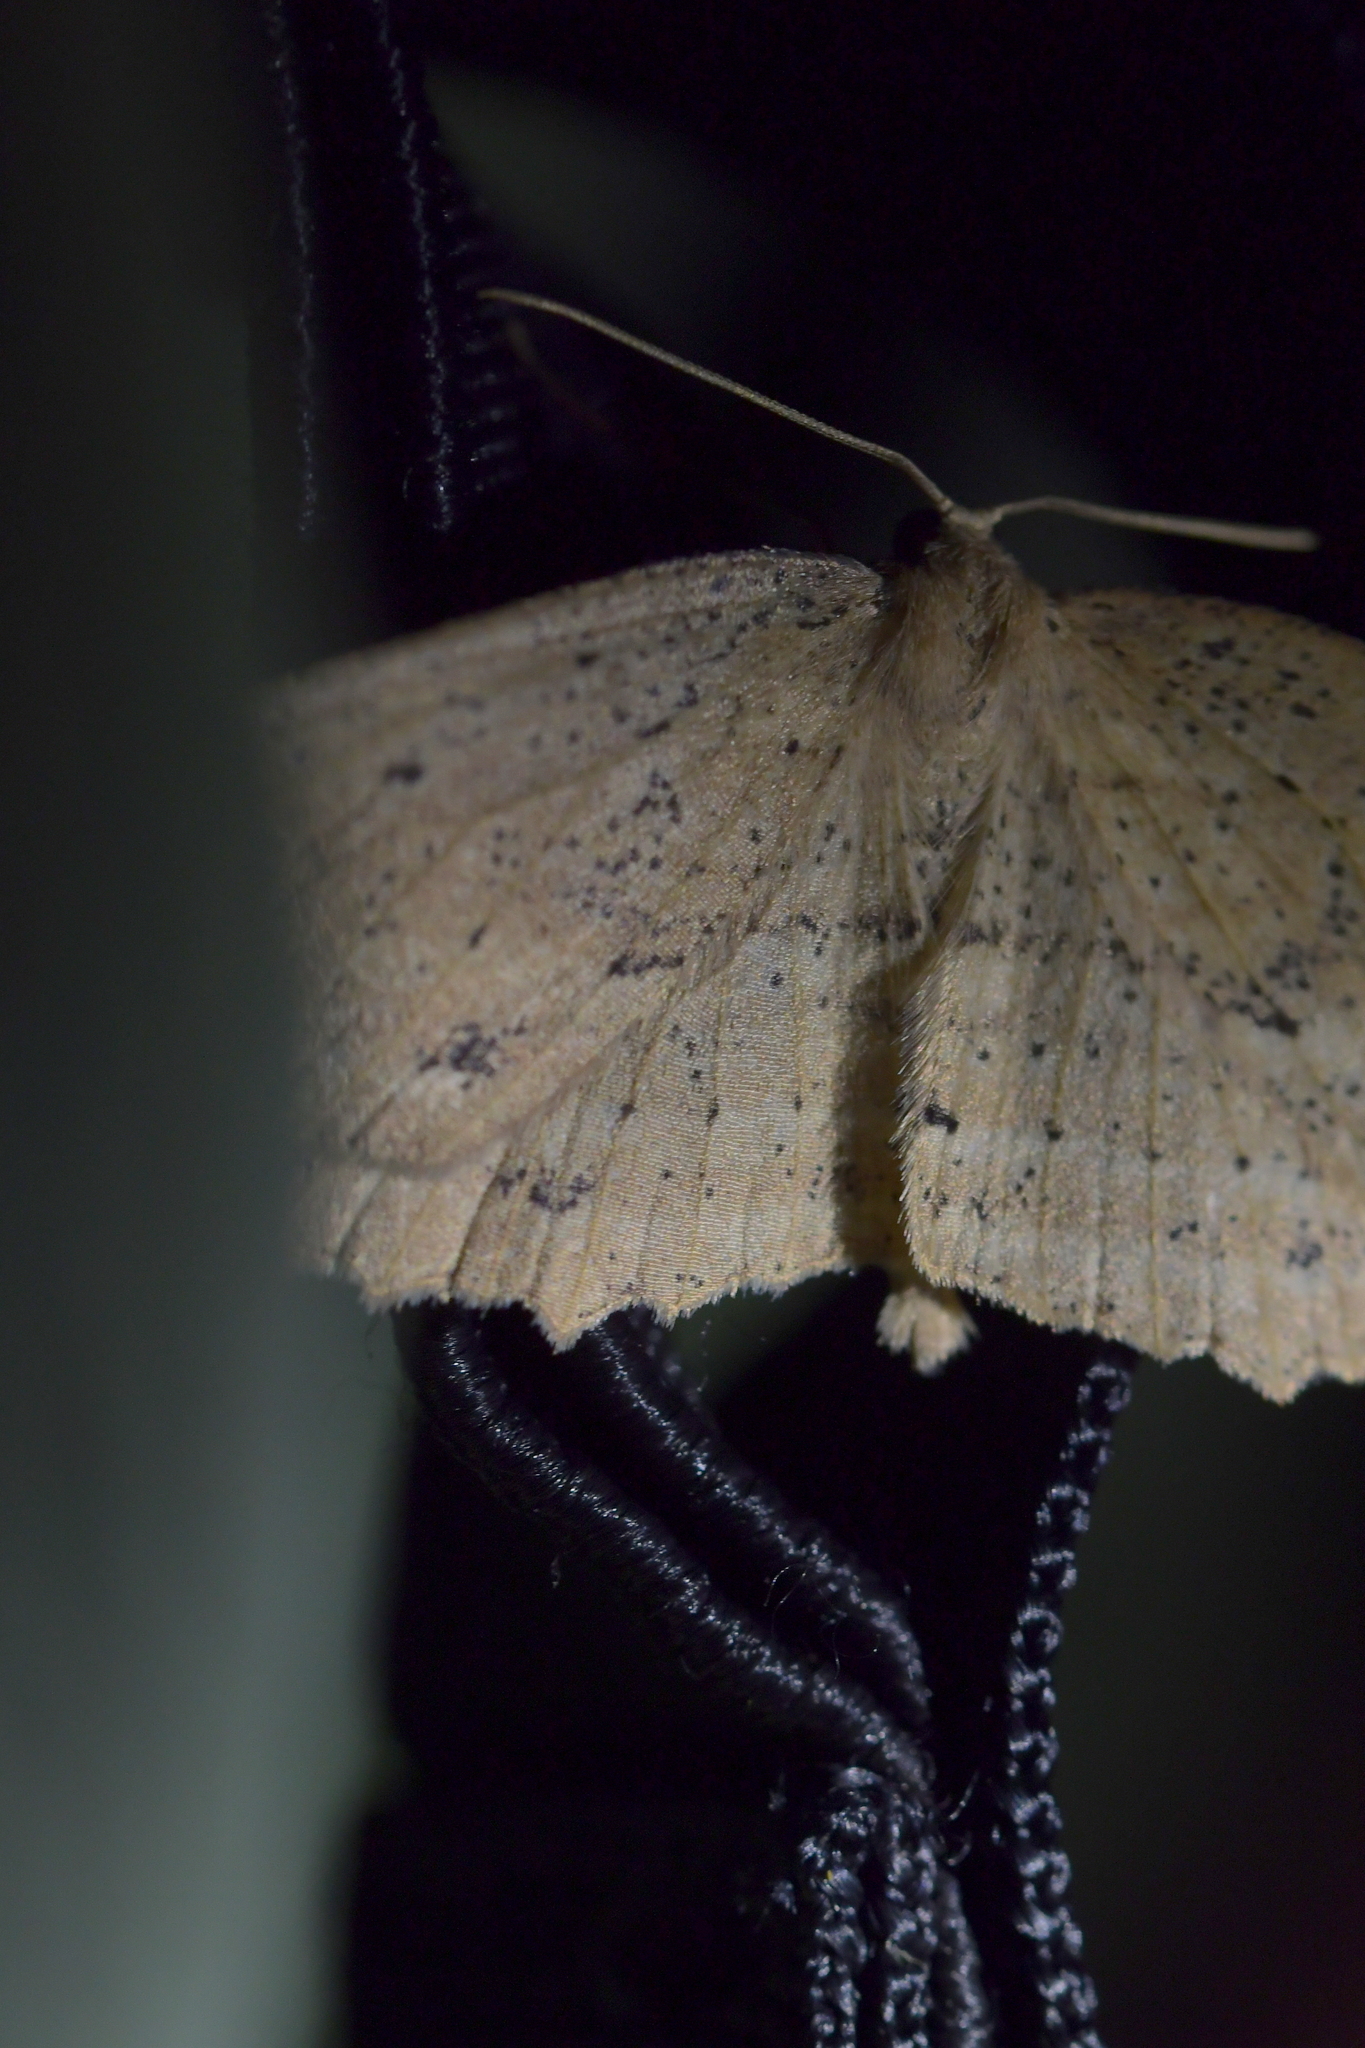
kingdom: Animalia
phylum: Arthropoda
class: Insecta
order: Lepidoptera
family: Geometridae
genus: Xyridacma
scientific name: Xyridacma veronicae
